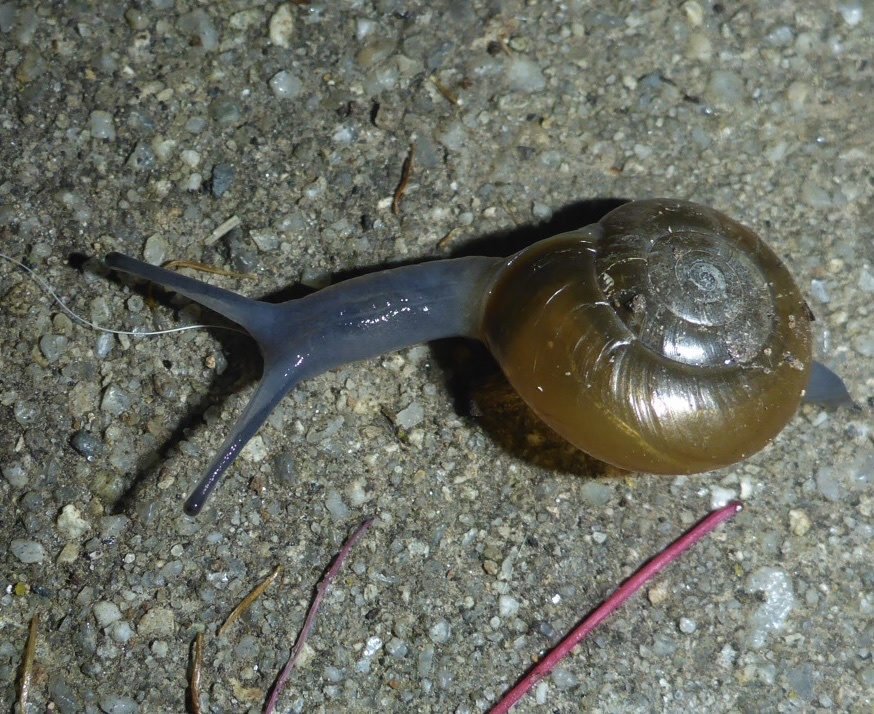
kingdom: Animalia
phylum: Mollusca
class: Gastropoda
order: Stylommatophora
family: Oxychilidae
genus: Oxychilus
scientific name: Oxychilus draparnaudi
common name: Draparnaud's glass snail
